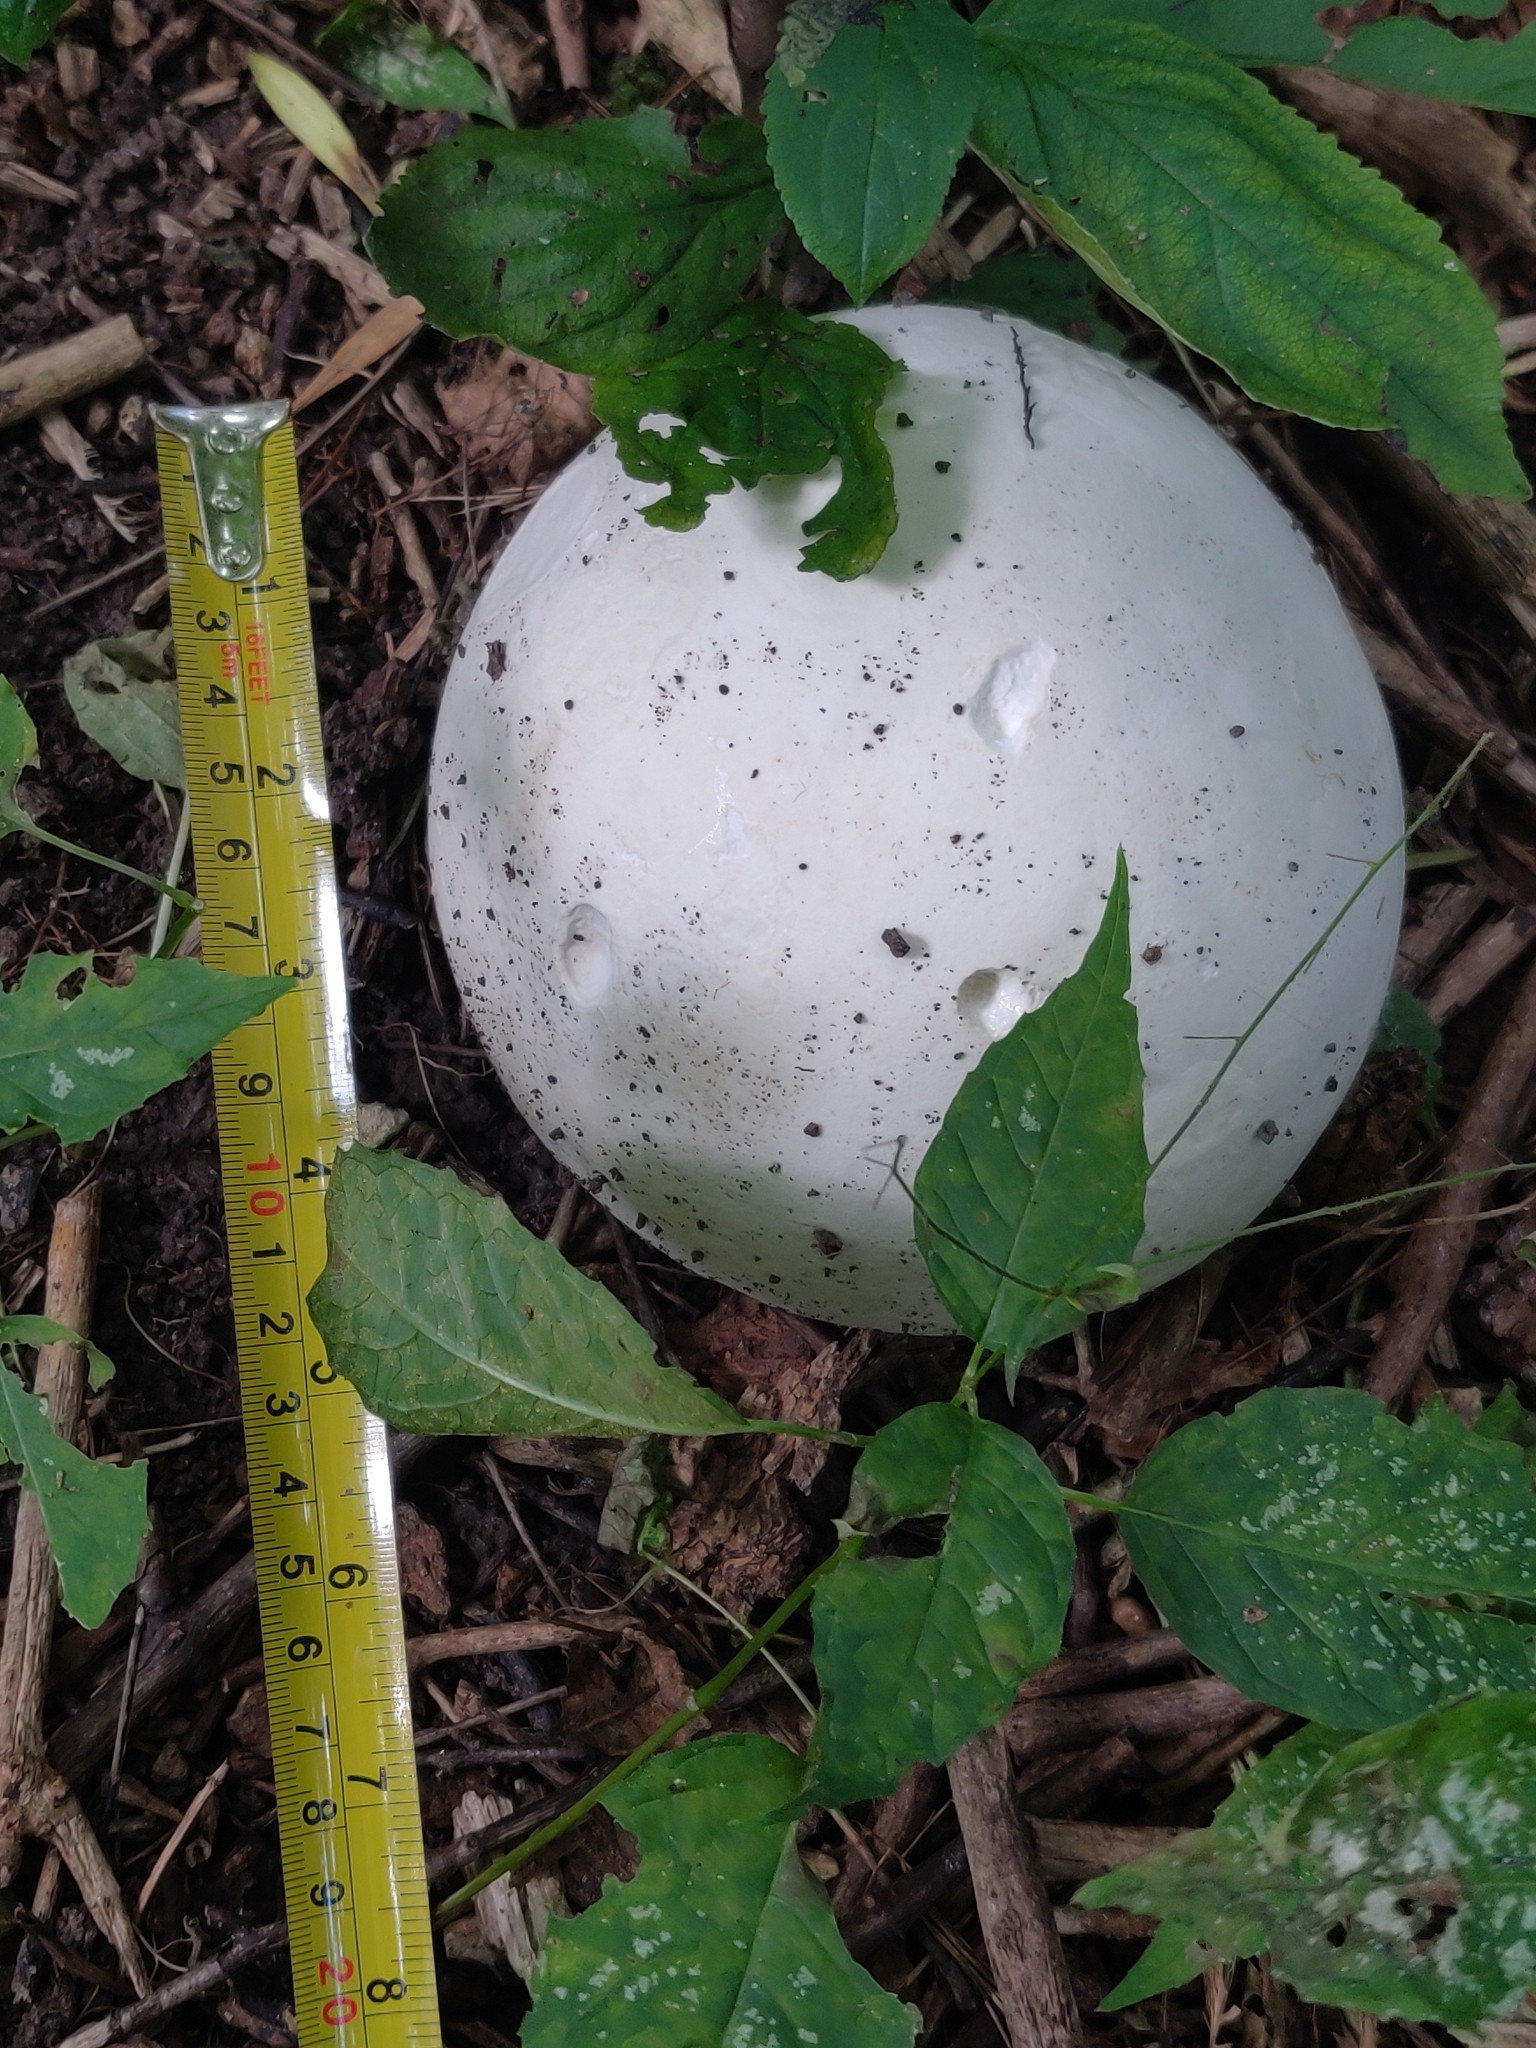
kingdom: Fungi
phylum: Basidiomycota
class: Agaricomycetes
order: Agaricales
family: Lycoperdaceae
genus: Calvatia
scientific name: Calvatia gigantea
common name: Giant puffball
